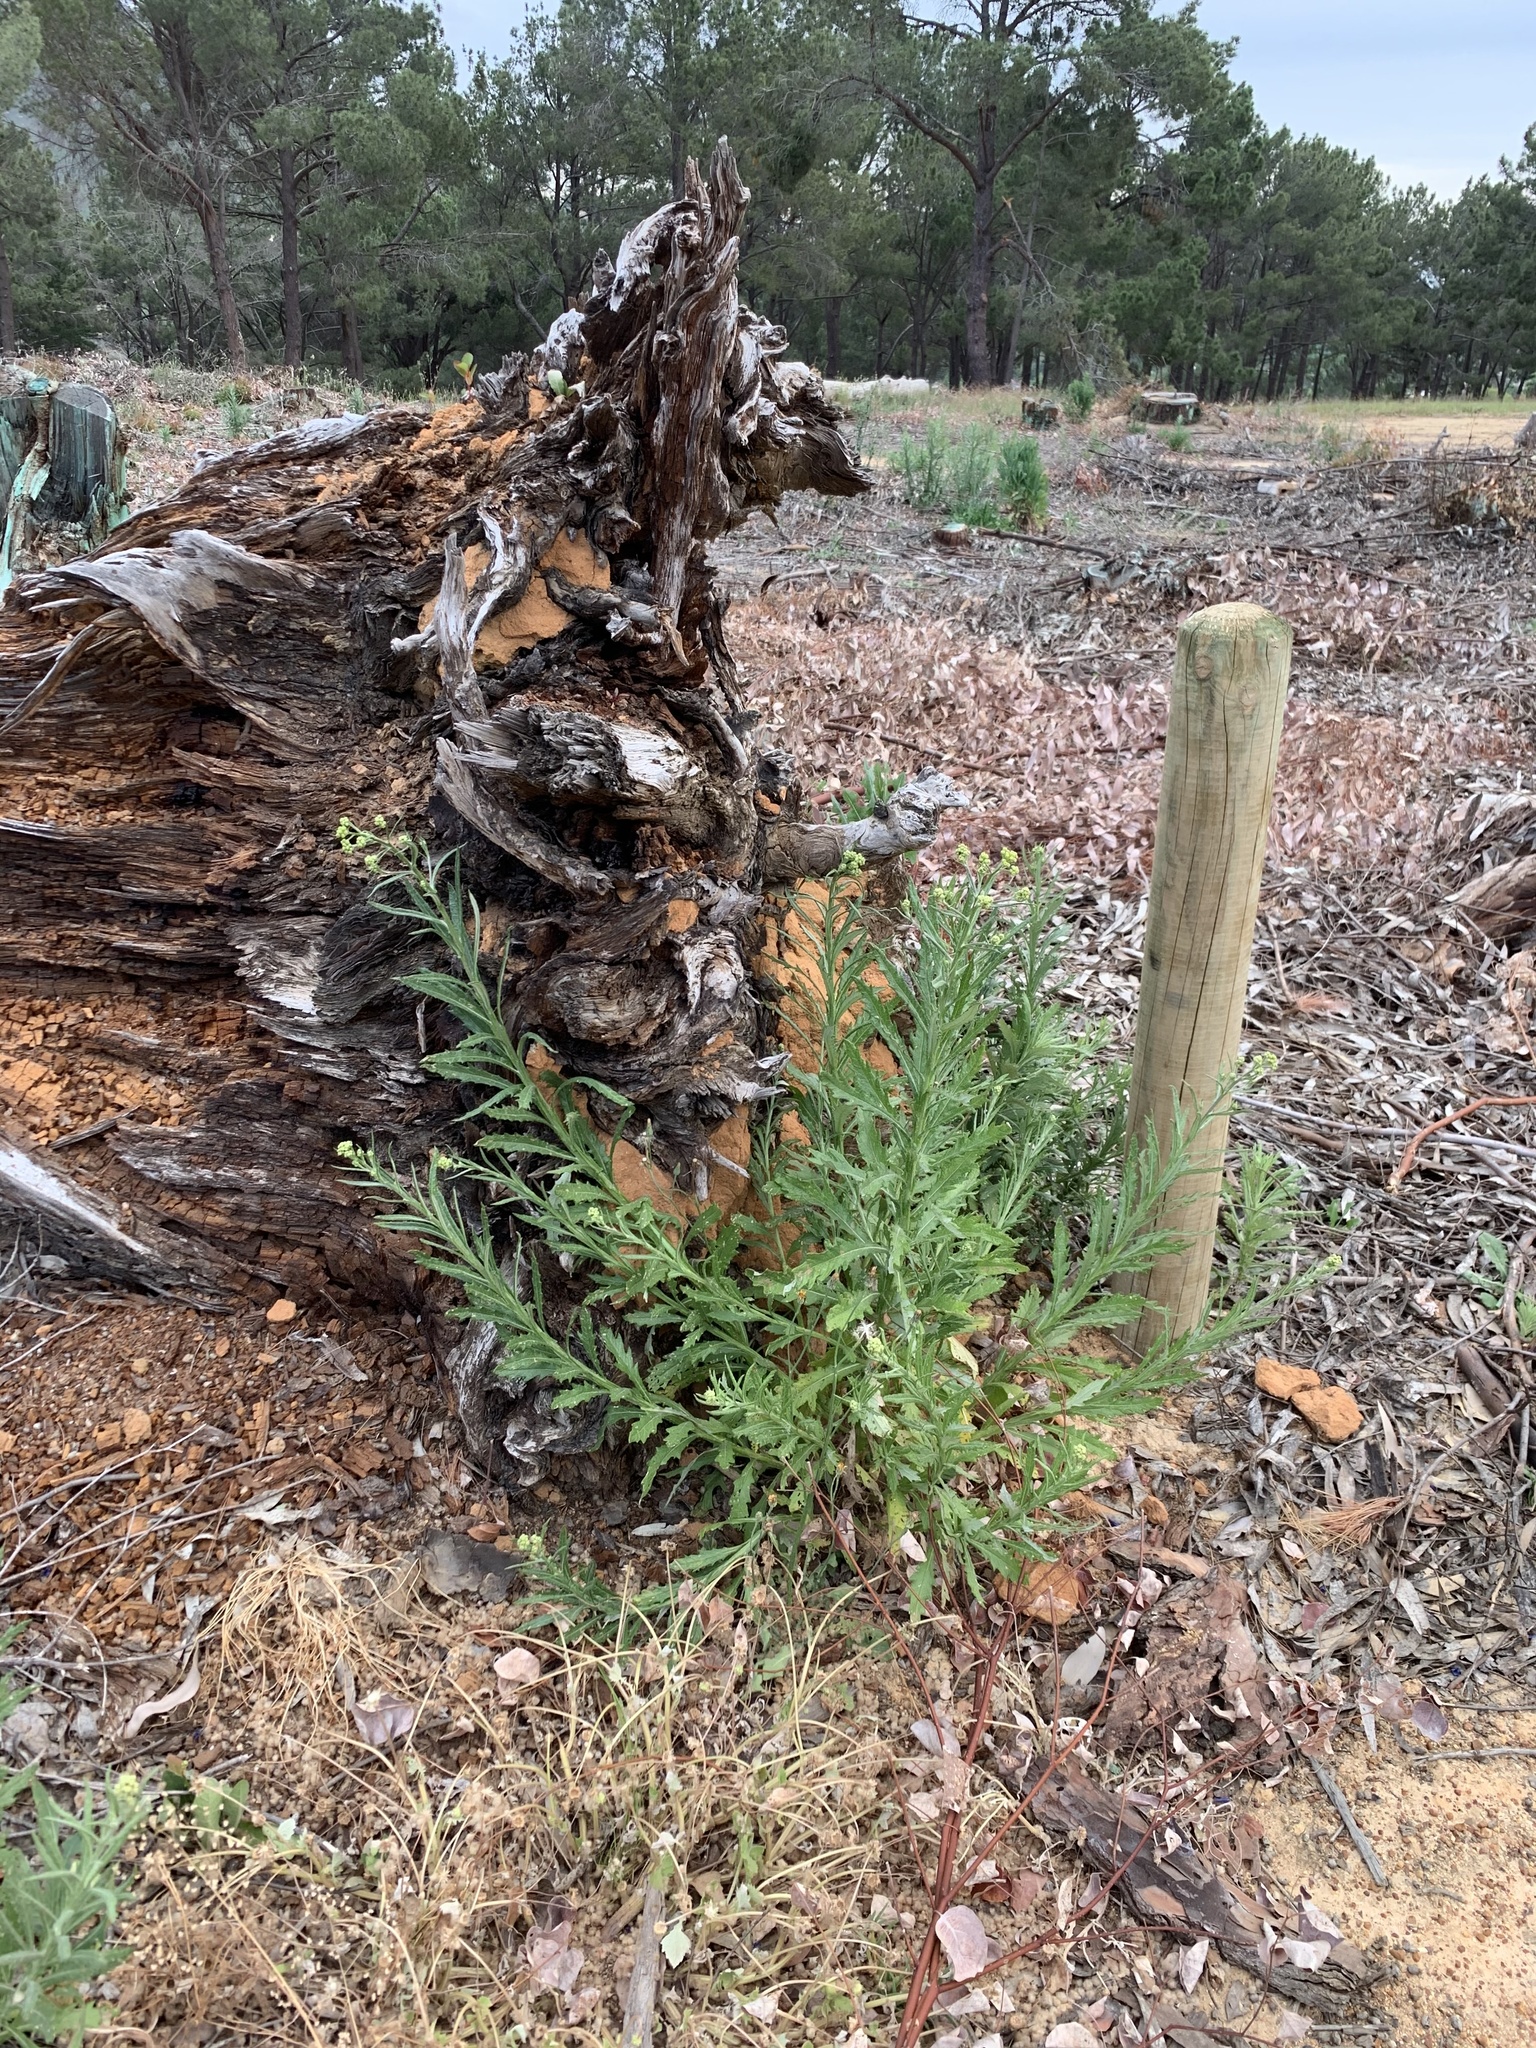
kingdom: Plantae
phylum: Tracheophyta
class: Magnoliopsida
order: Asterales
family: Asteraceae
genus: Senecio
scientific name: Senecio pterophorus
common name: Shoddy ragwort
